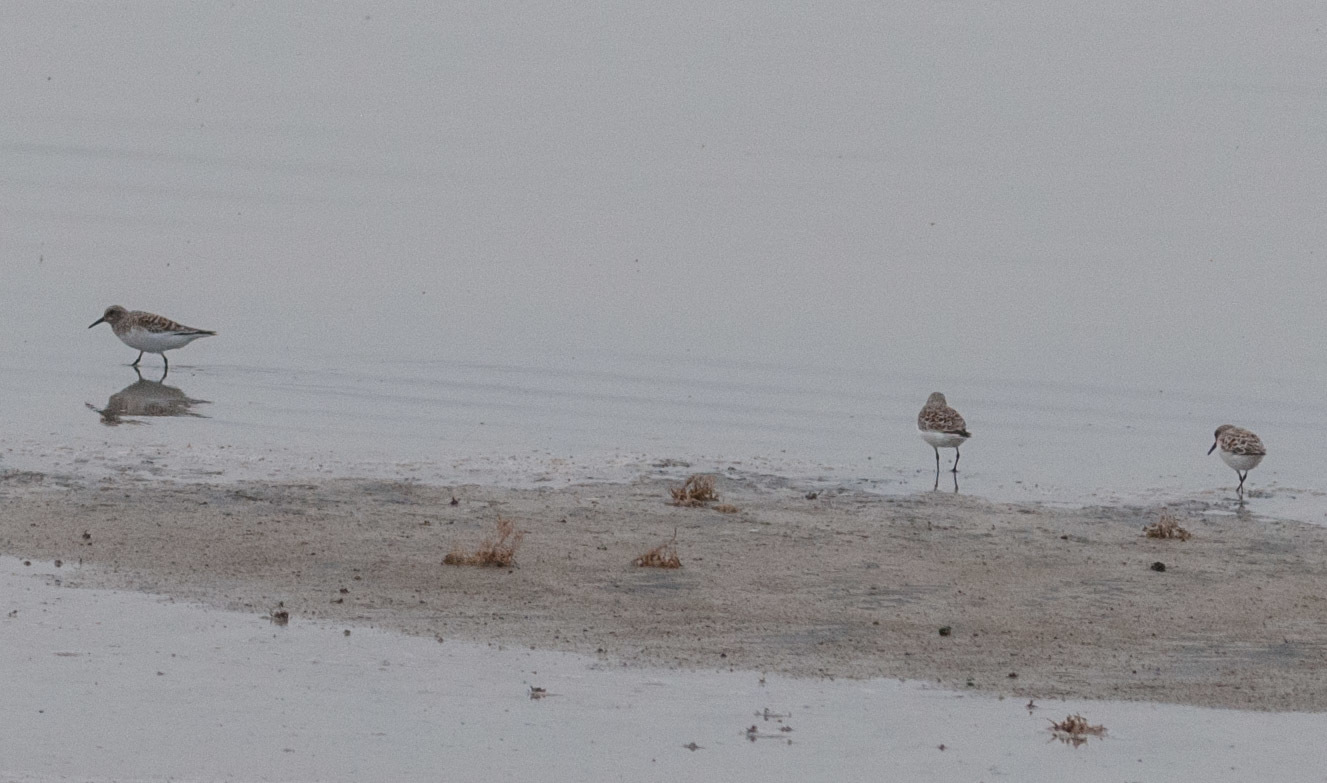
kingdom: Animalia
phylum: Chordata
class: Aves
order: Charadriiformes
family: Scolopacidae
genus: Calidris
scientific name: Calidris alba
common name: Sanderling
